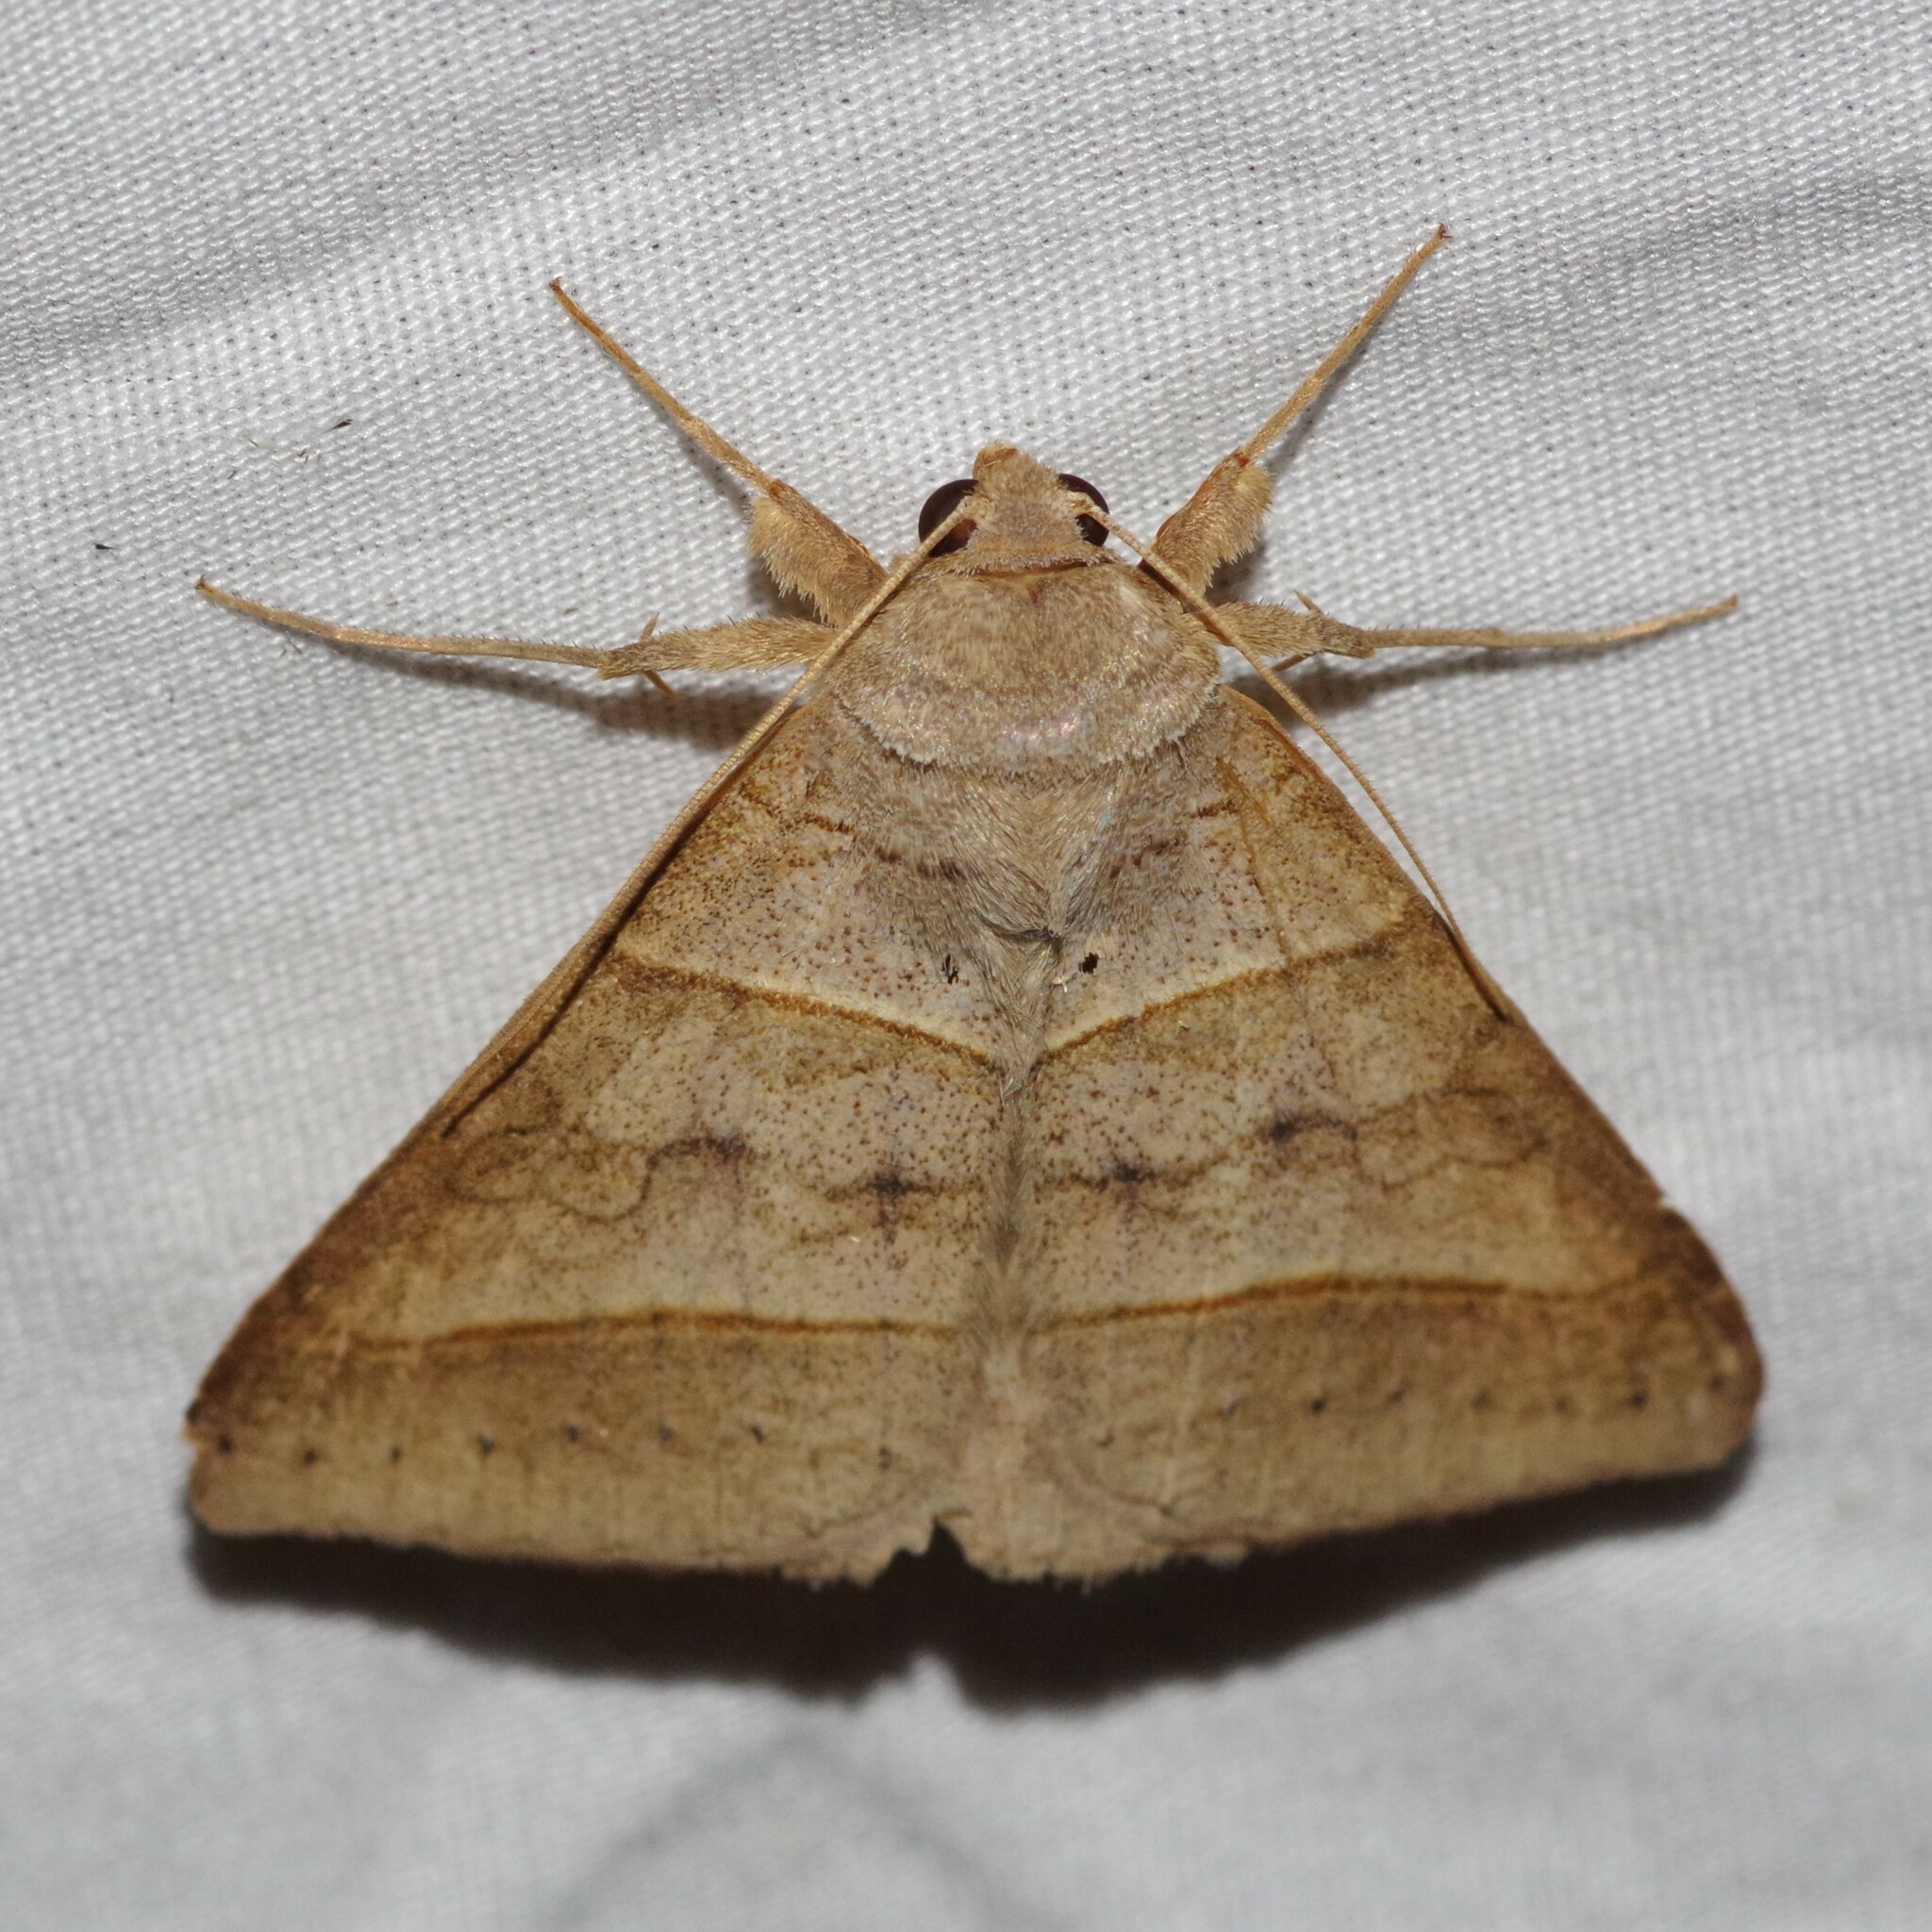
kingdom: Animalia
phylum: Arthropoda
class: Insecta
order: Lepidoptera
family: Erebidae
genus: Mocis
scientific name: Mocis texana
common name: Texas mocis moth
